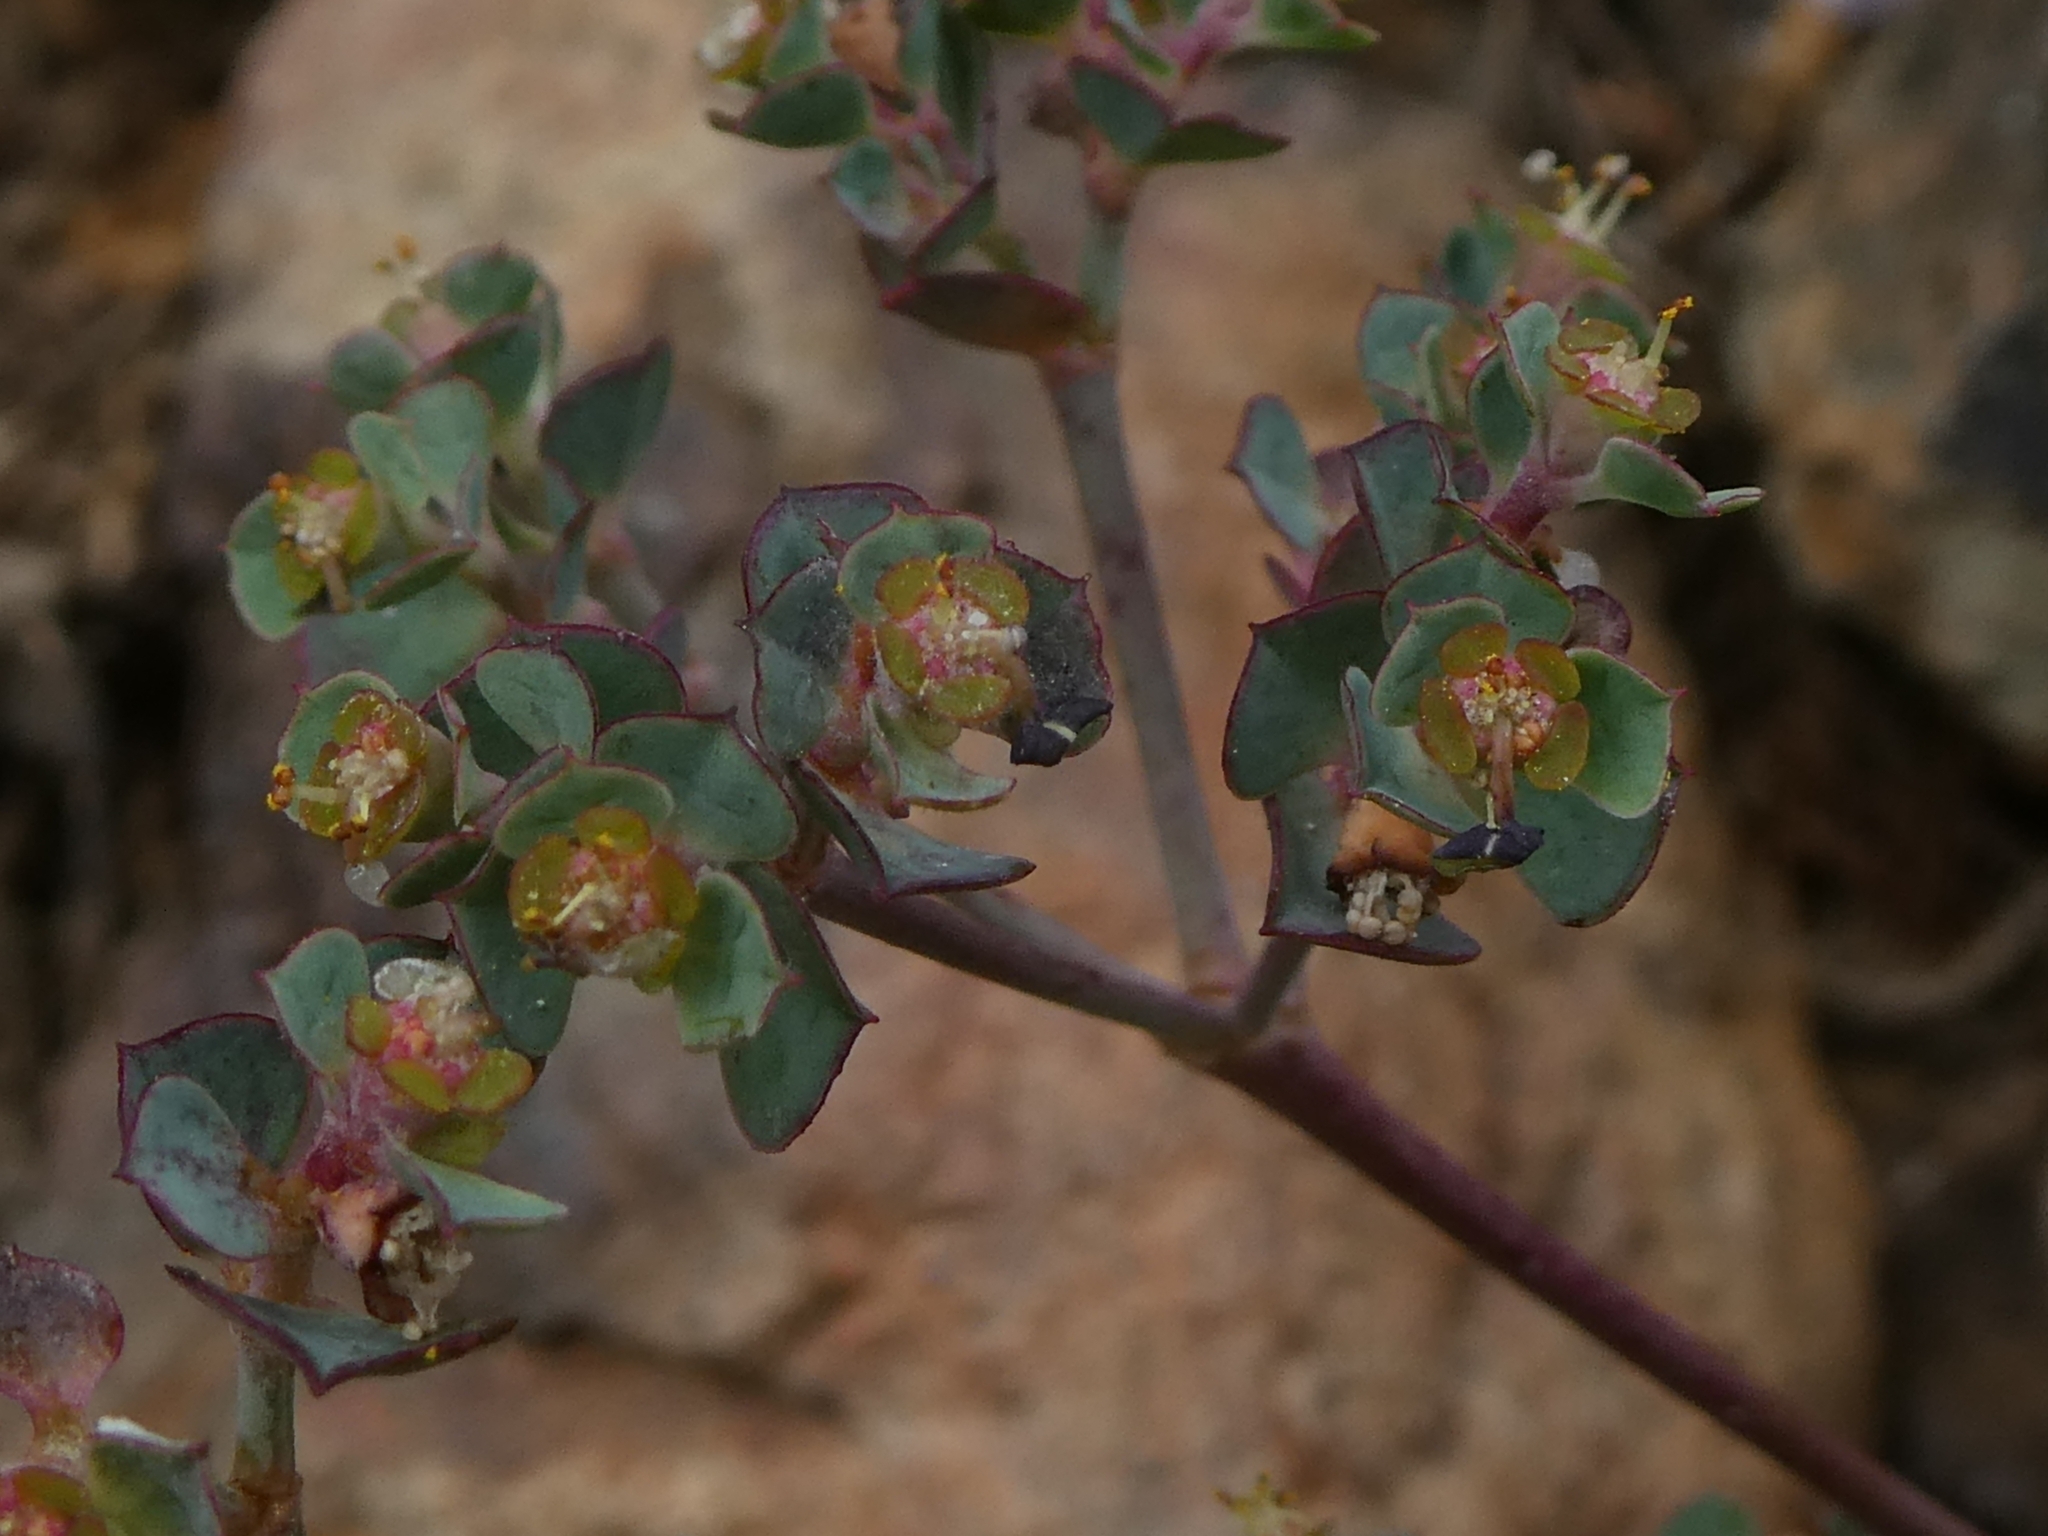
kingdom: Plantae
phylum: Tracheophyta
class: Magnoliopsida
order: Malpighiales
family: Euphorbiaceae
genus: Euphorbia
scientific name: Euphorbia cassia
